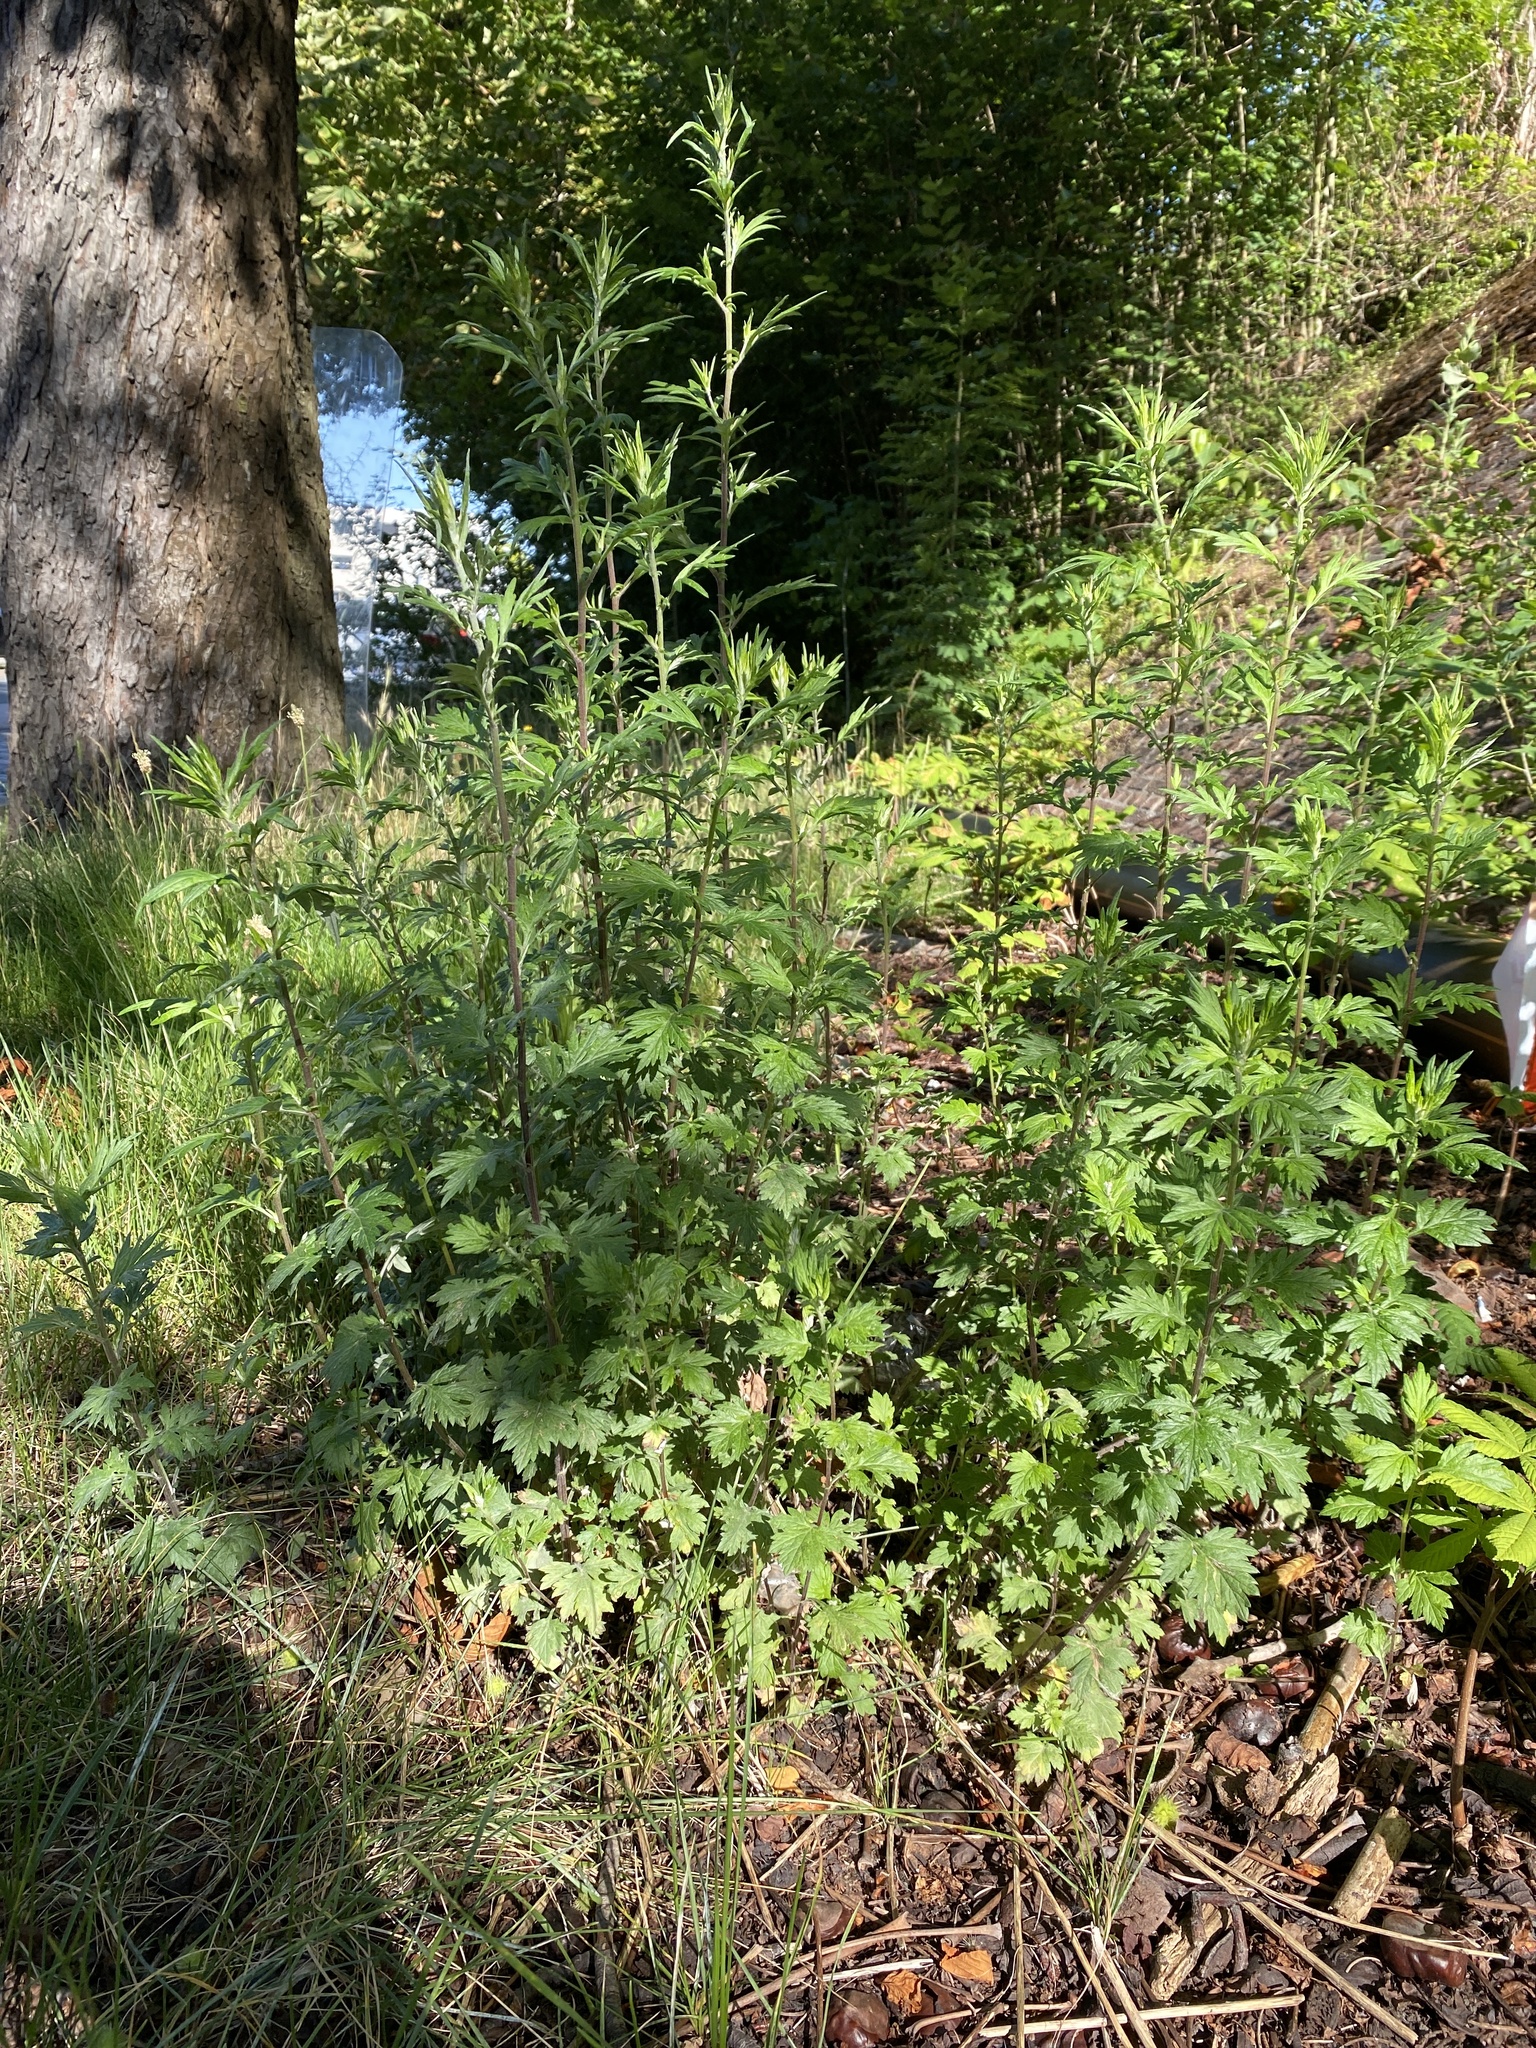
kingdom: Plantae
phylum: Tracheophyta
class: Magnoliopsida
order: Asterales
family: Asteraceae
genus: Artemisia
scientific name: Artemisia vulgaris
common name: Mugwort
